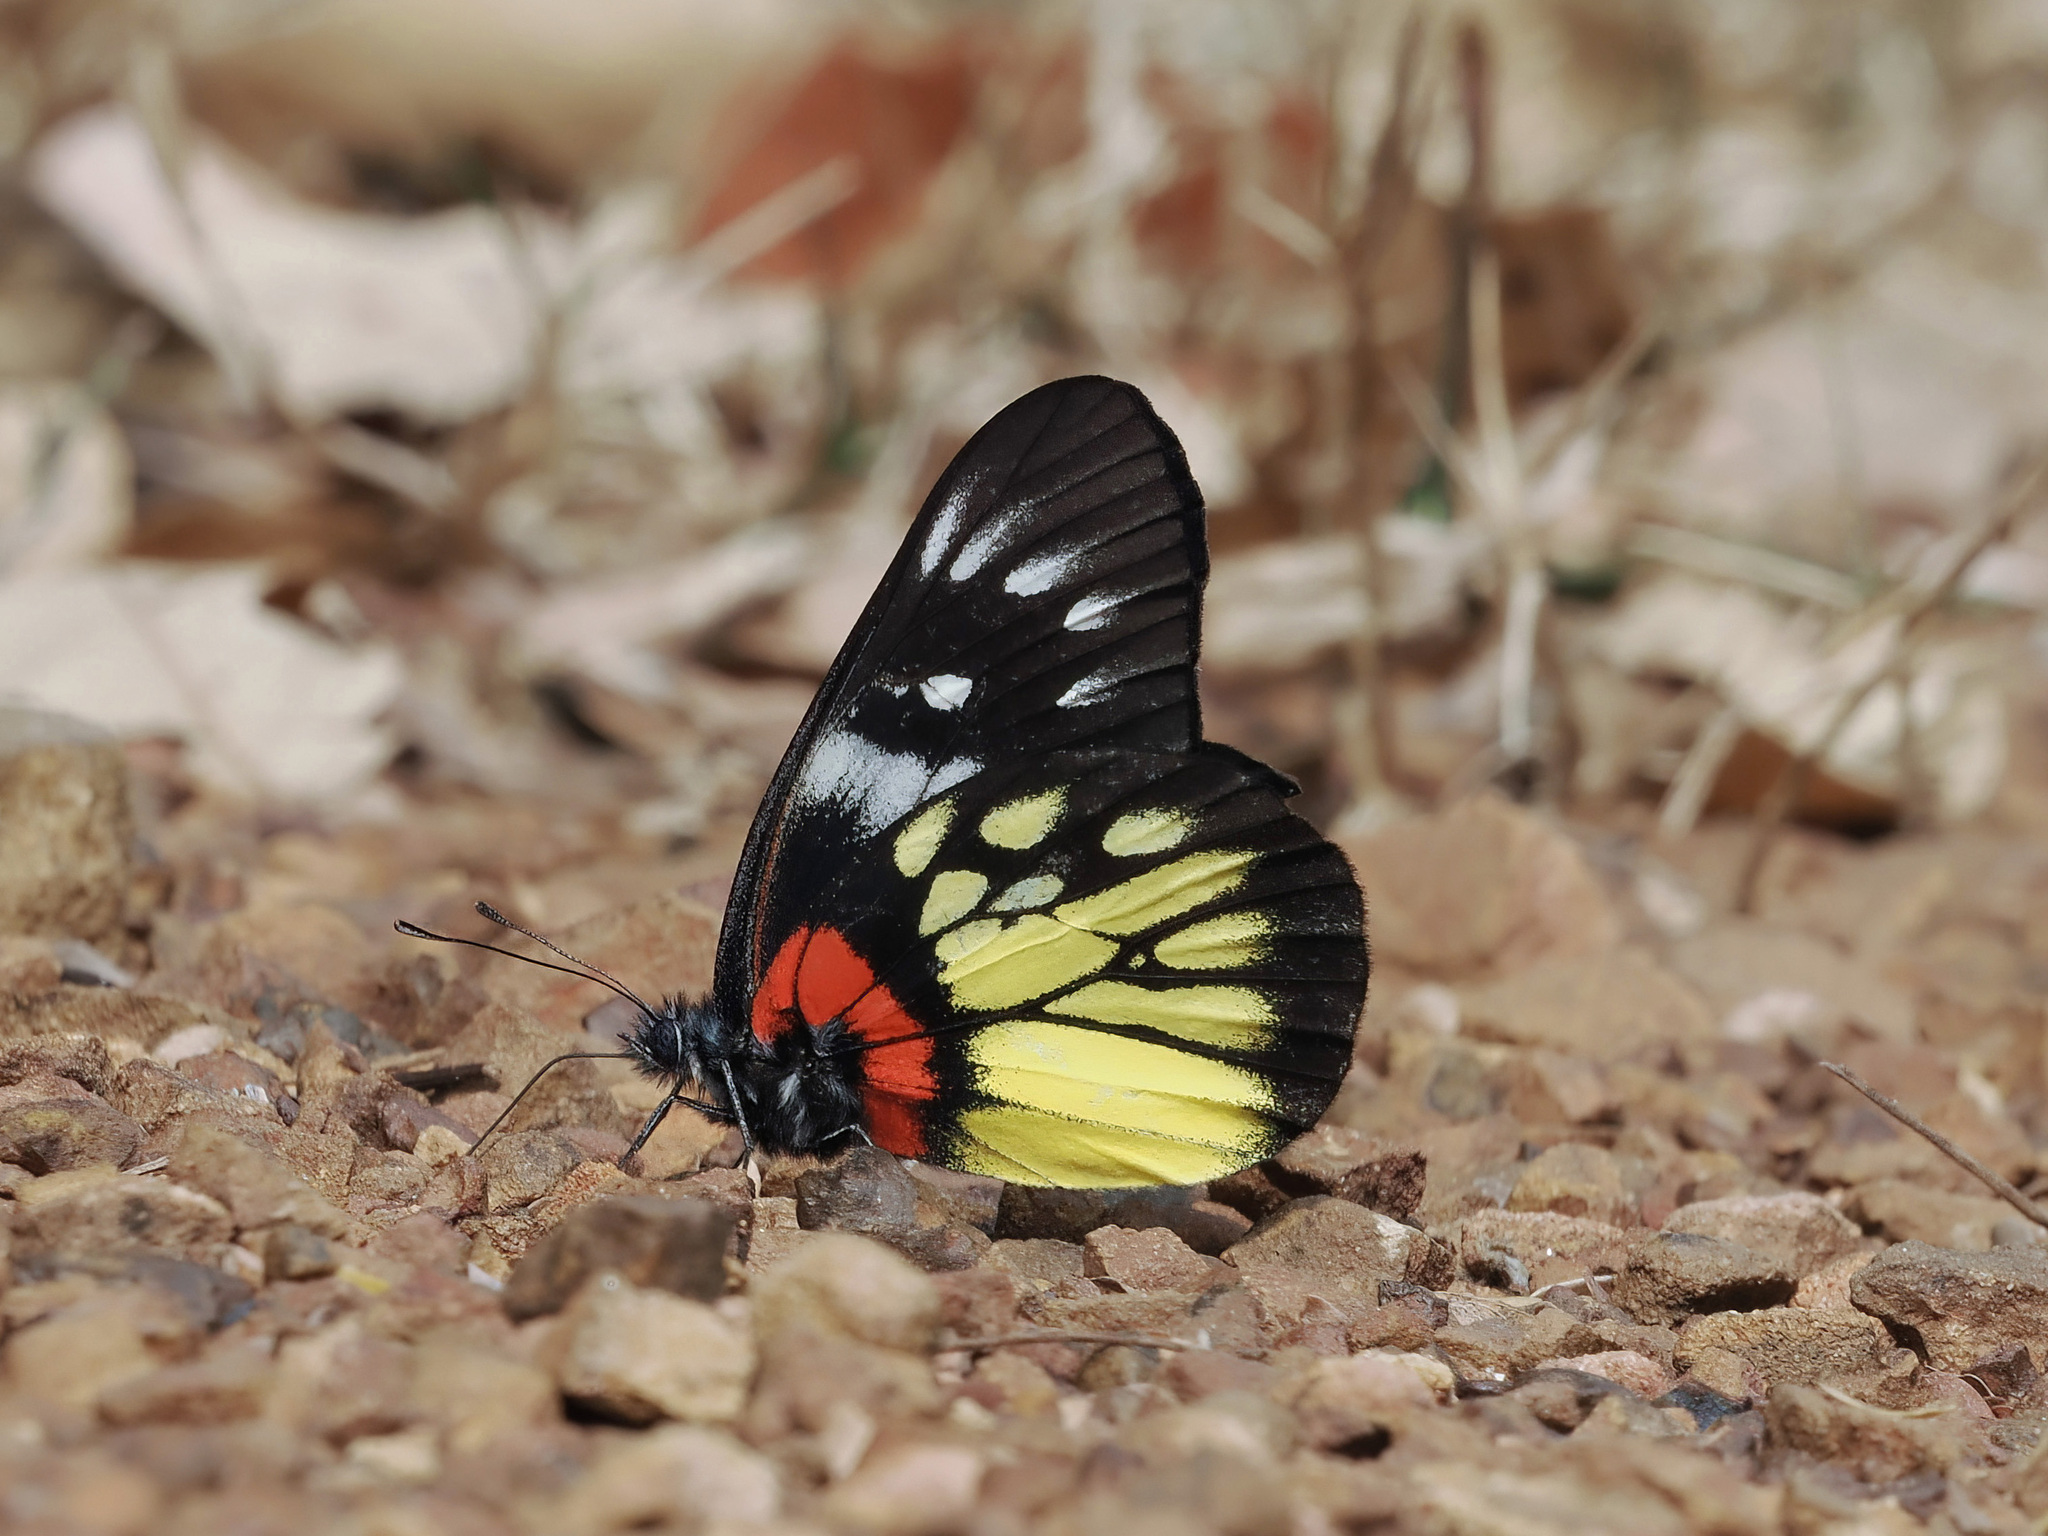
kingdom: Animalia
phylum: Arthropoda
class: Insecta
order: Lepidoptera
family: Pieridae
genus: Delias
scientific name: Delias pasithoe
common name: Red-base jezebel
